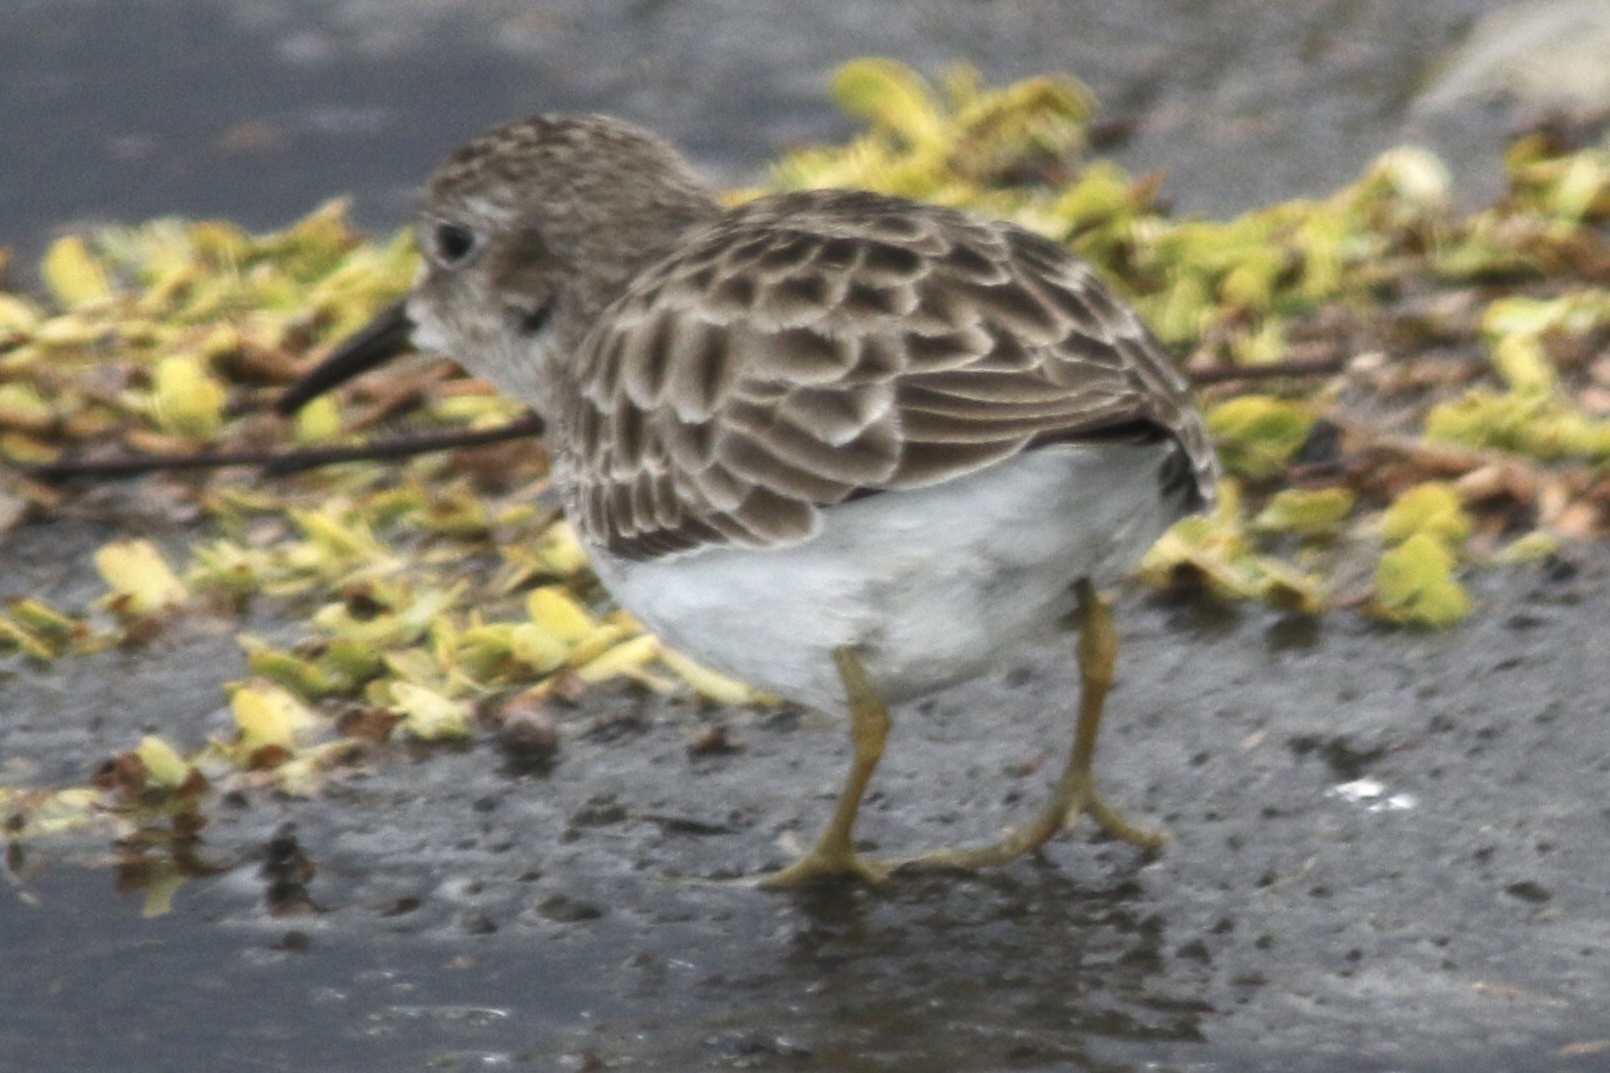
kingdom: Animalia
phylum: Chordata
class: Aves
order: Charadriiformes
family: Scolopacidae
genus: Calidris
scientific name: Calidris minutilla
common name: Least sandpiper
